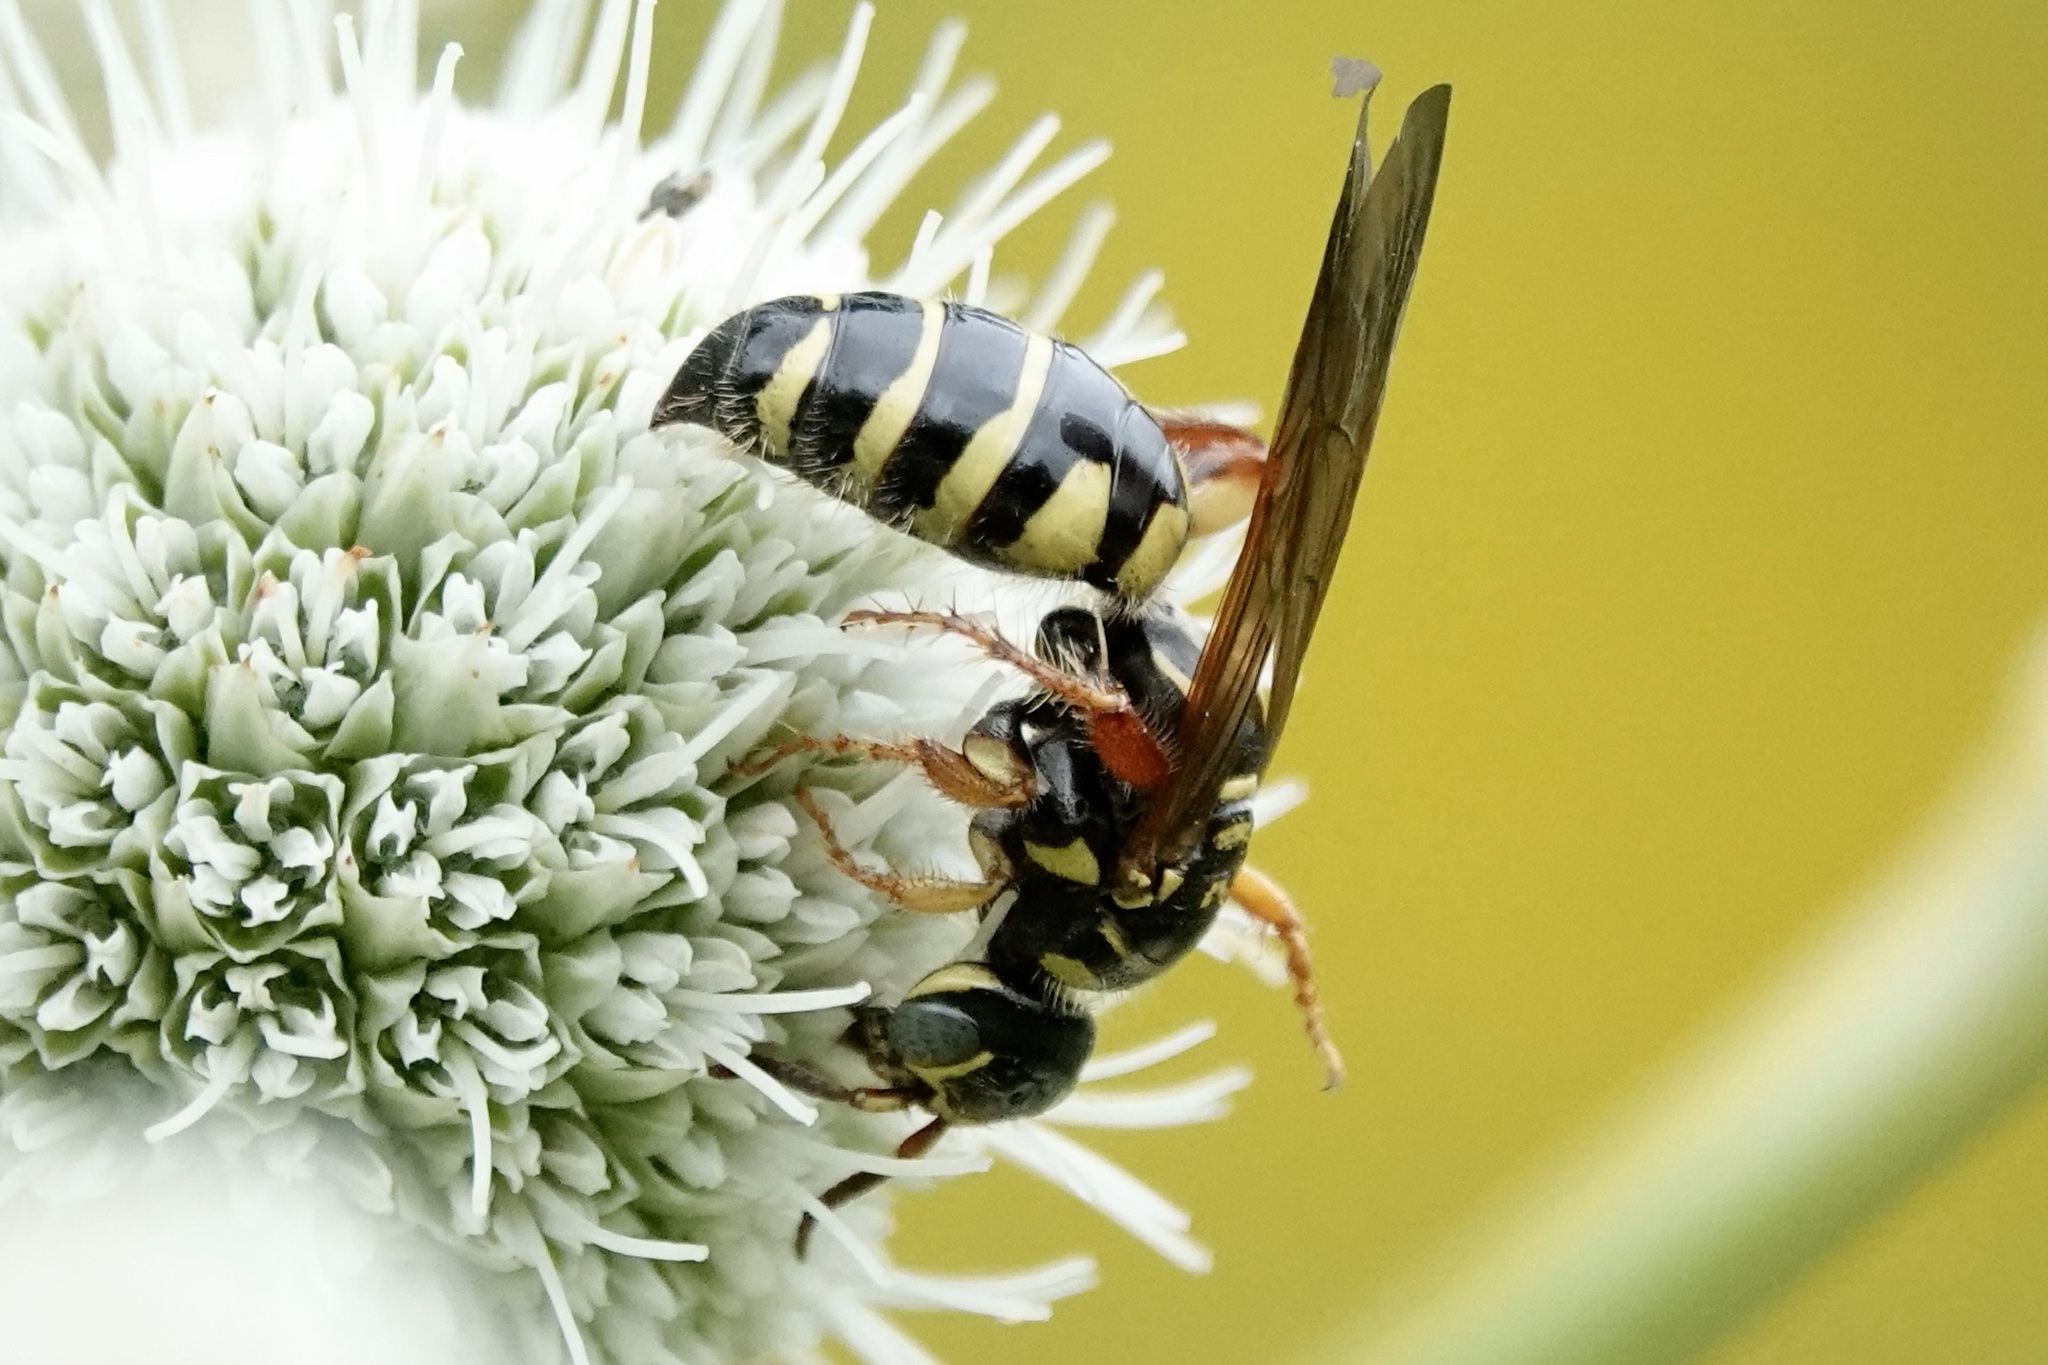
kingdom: Animalia
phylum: Arthropoda
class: Insecta
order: Hymenoptera
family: Tiphiidae
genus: Myzinum
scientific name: Myzinum quinquecinctum
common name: Five-banded thynnid wasp
